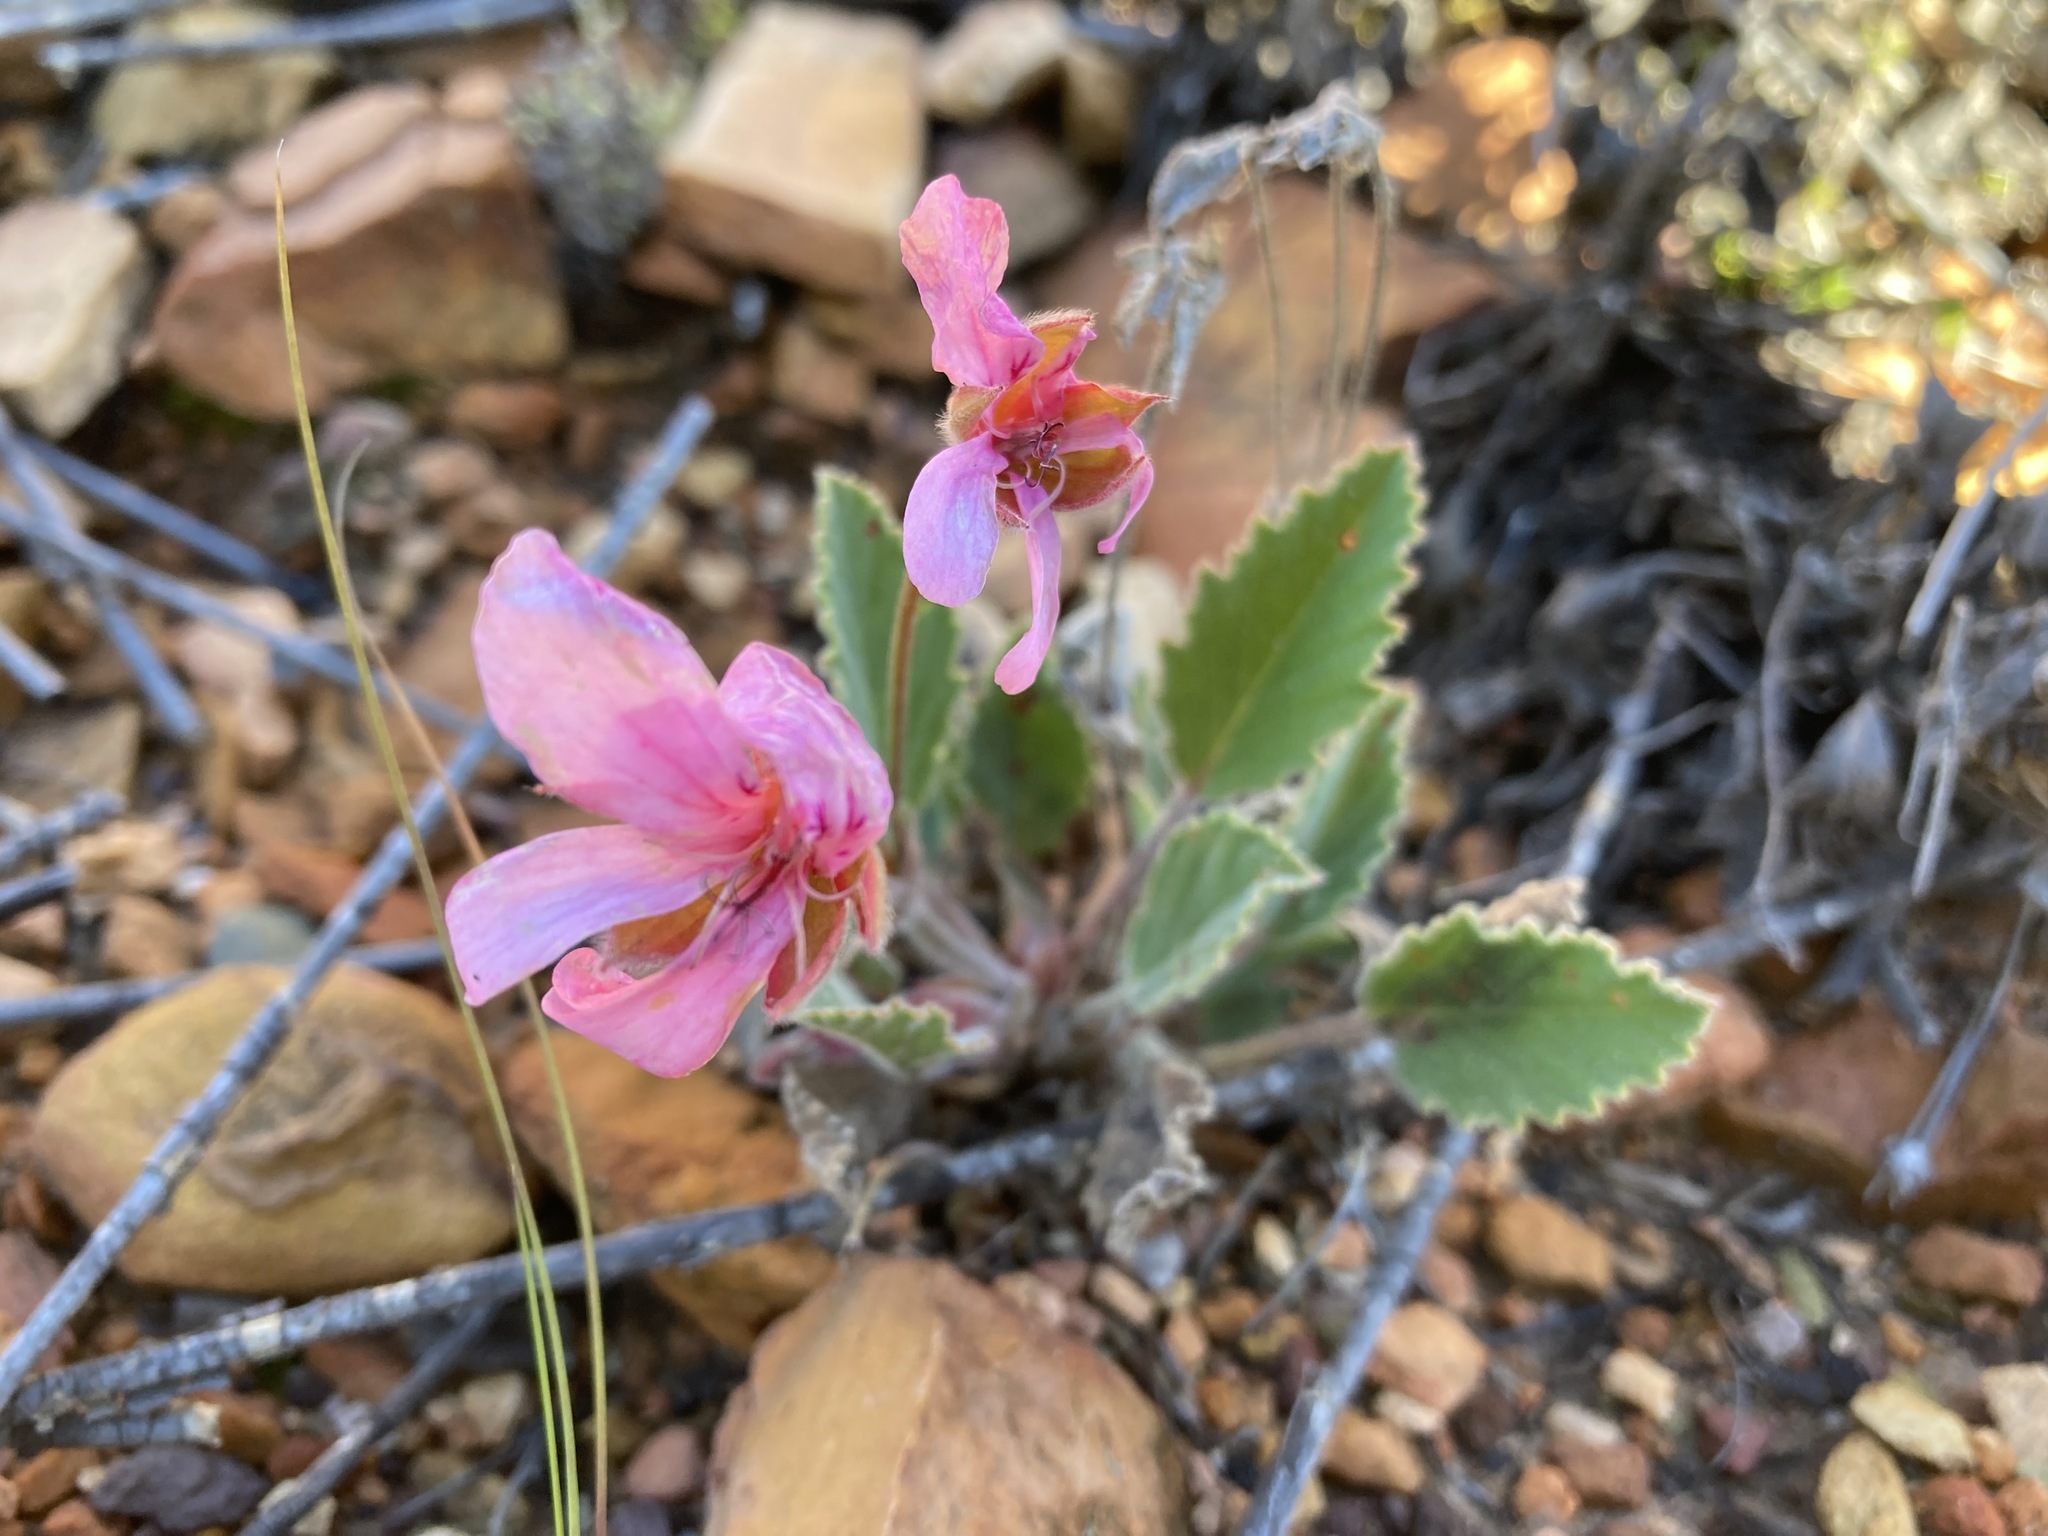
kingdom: Plantae
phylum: Tracheophyta
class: Magnoliopsida
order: Geraniales
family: Geraniaceae
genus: Pelargonium
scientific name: Pelargonium ovale
